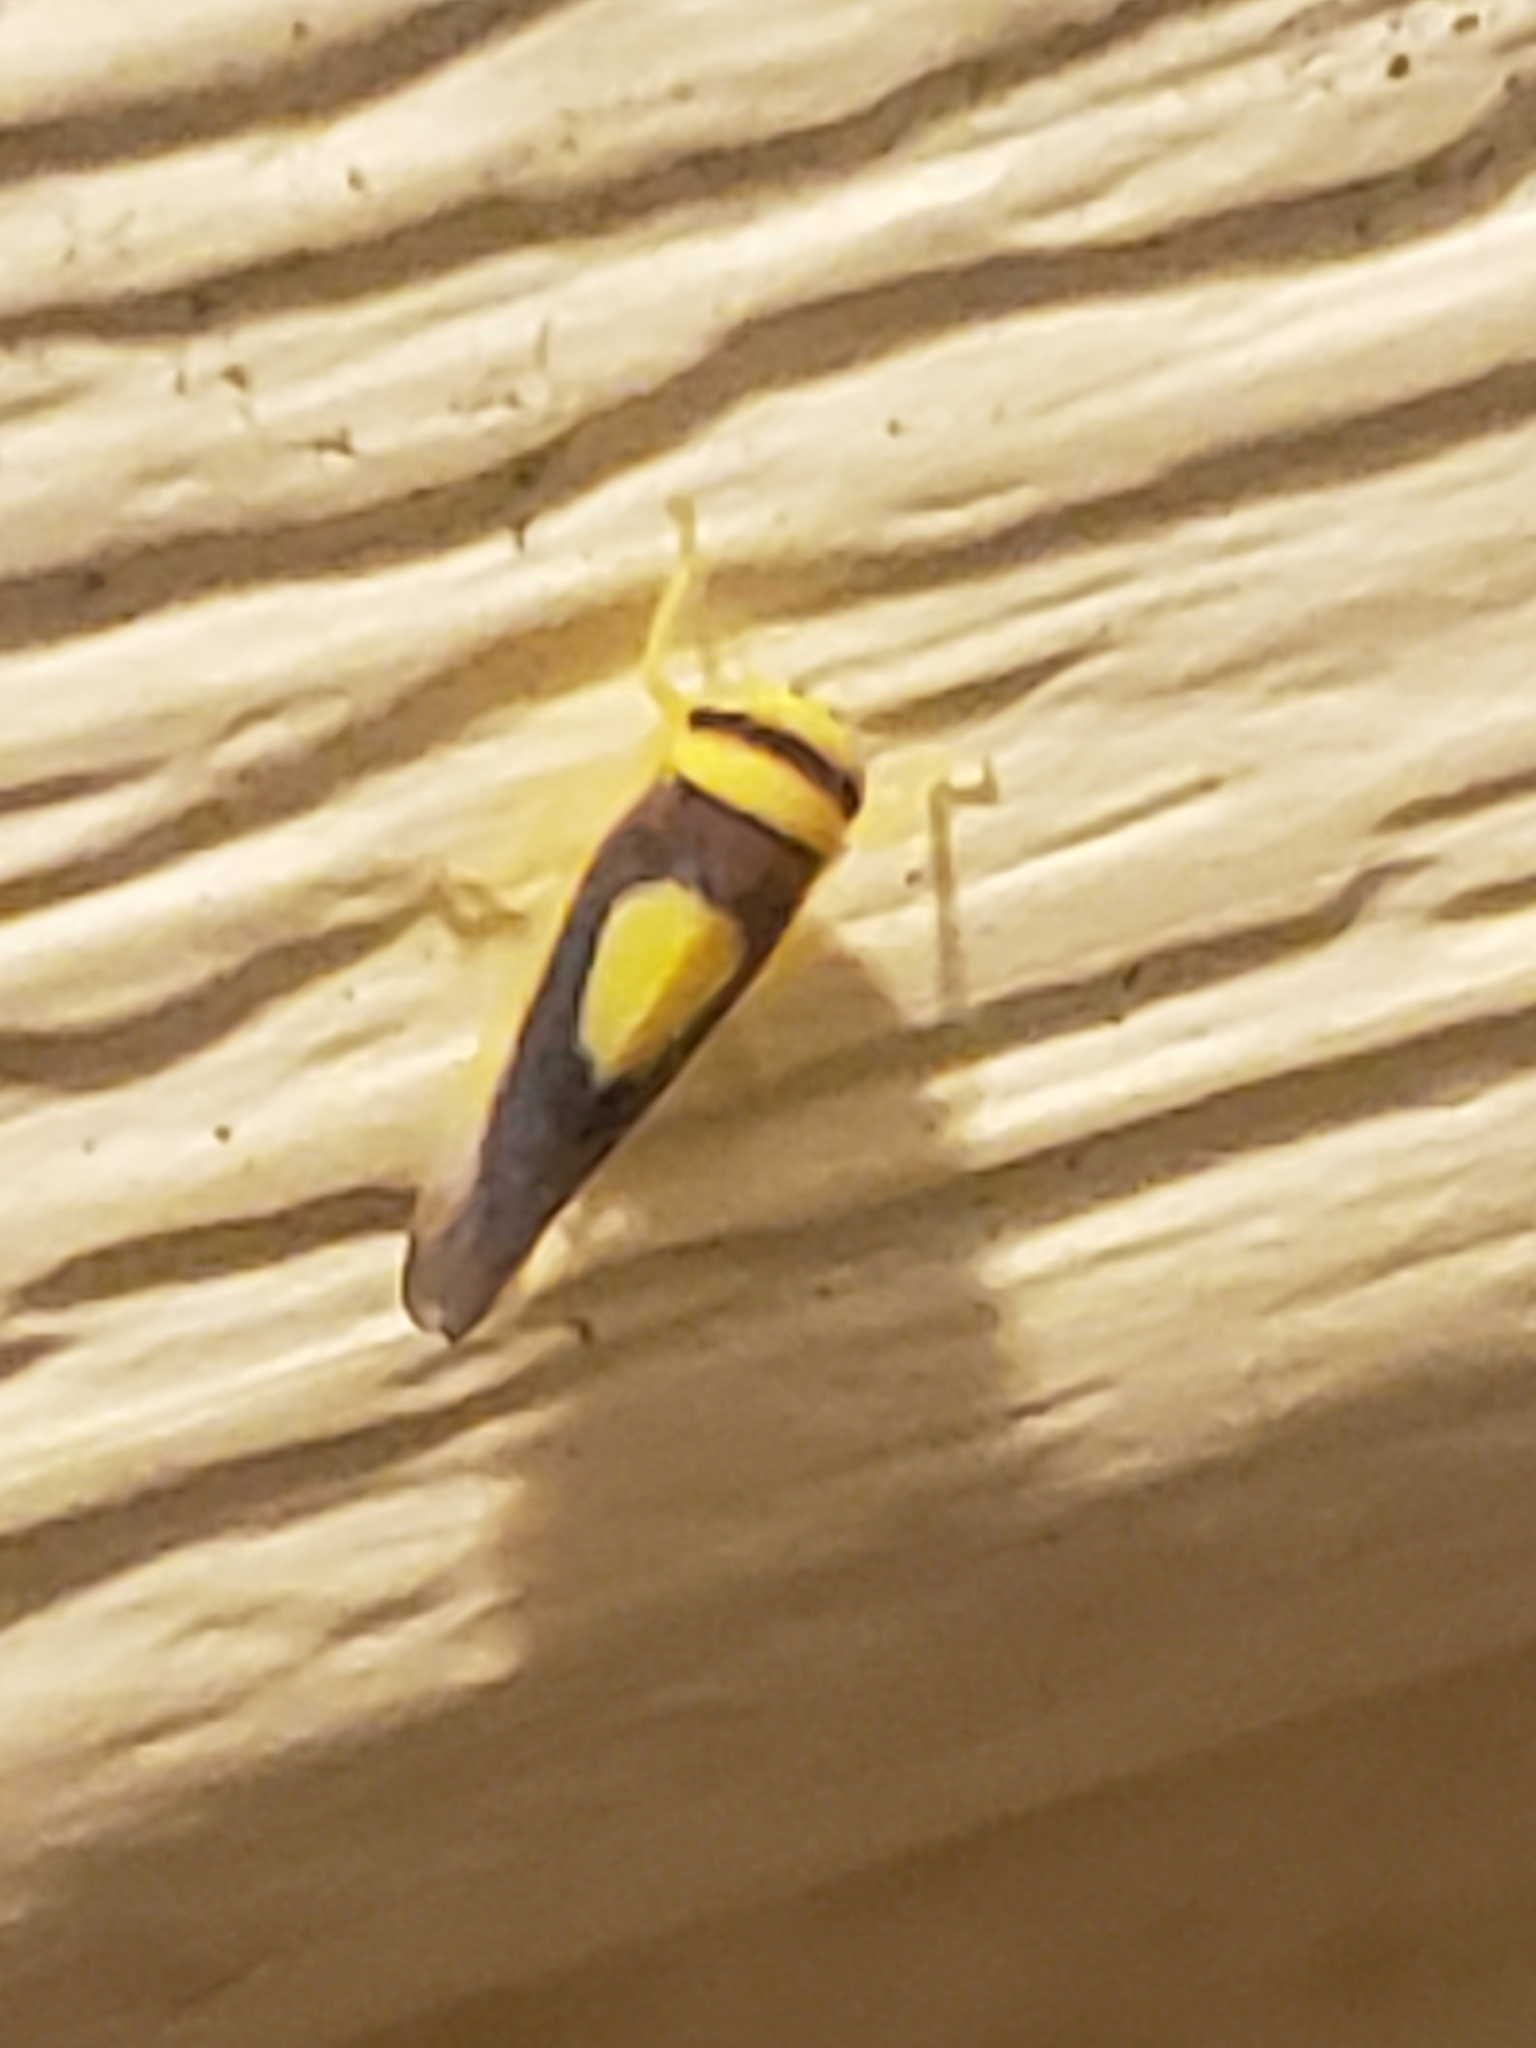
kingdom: Animalia
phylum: Arthropoda
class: Insecta
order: Hemiptera
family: Cicadellidae
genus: Colladonus
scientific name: Colladonus clitellarius
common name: The saddleback leafhopper
